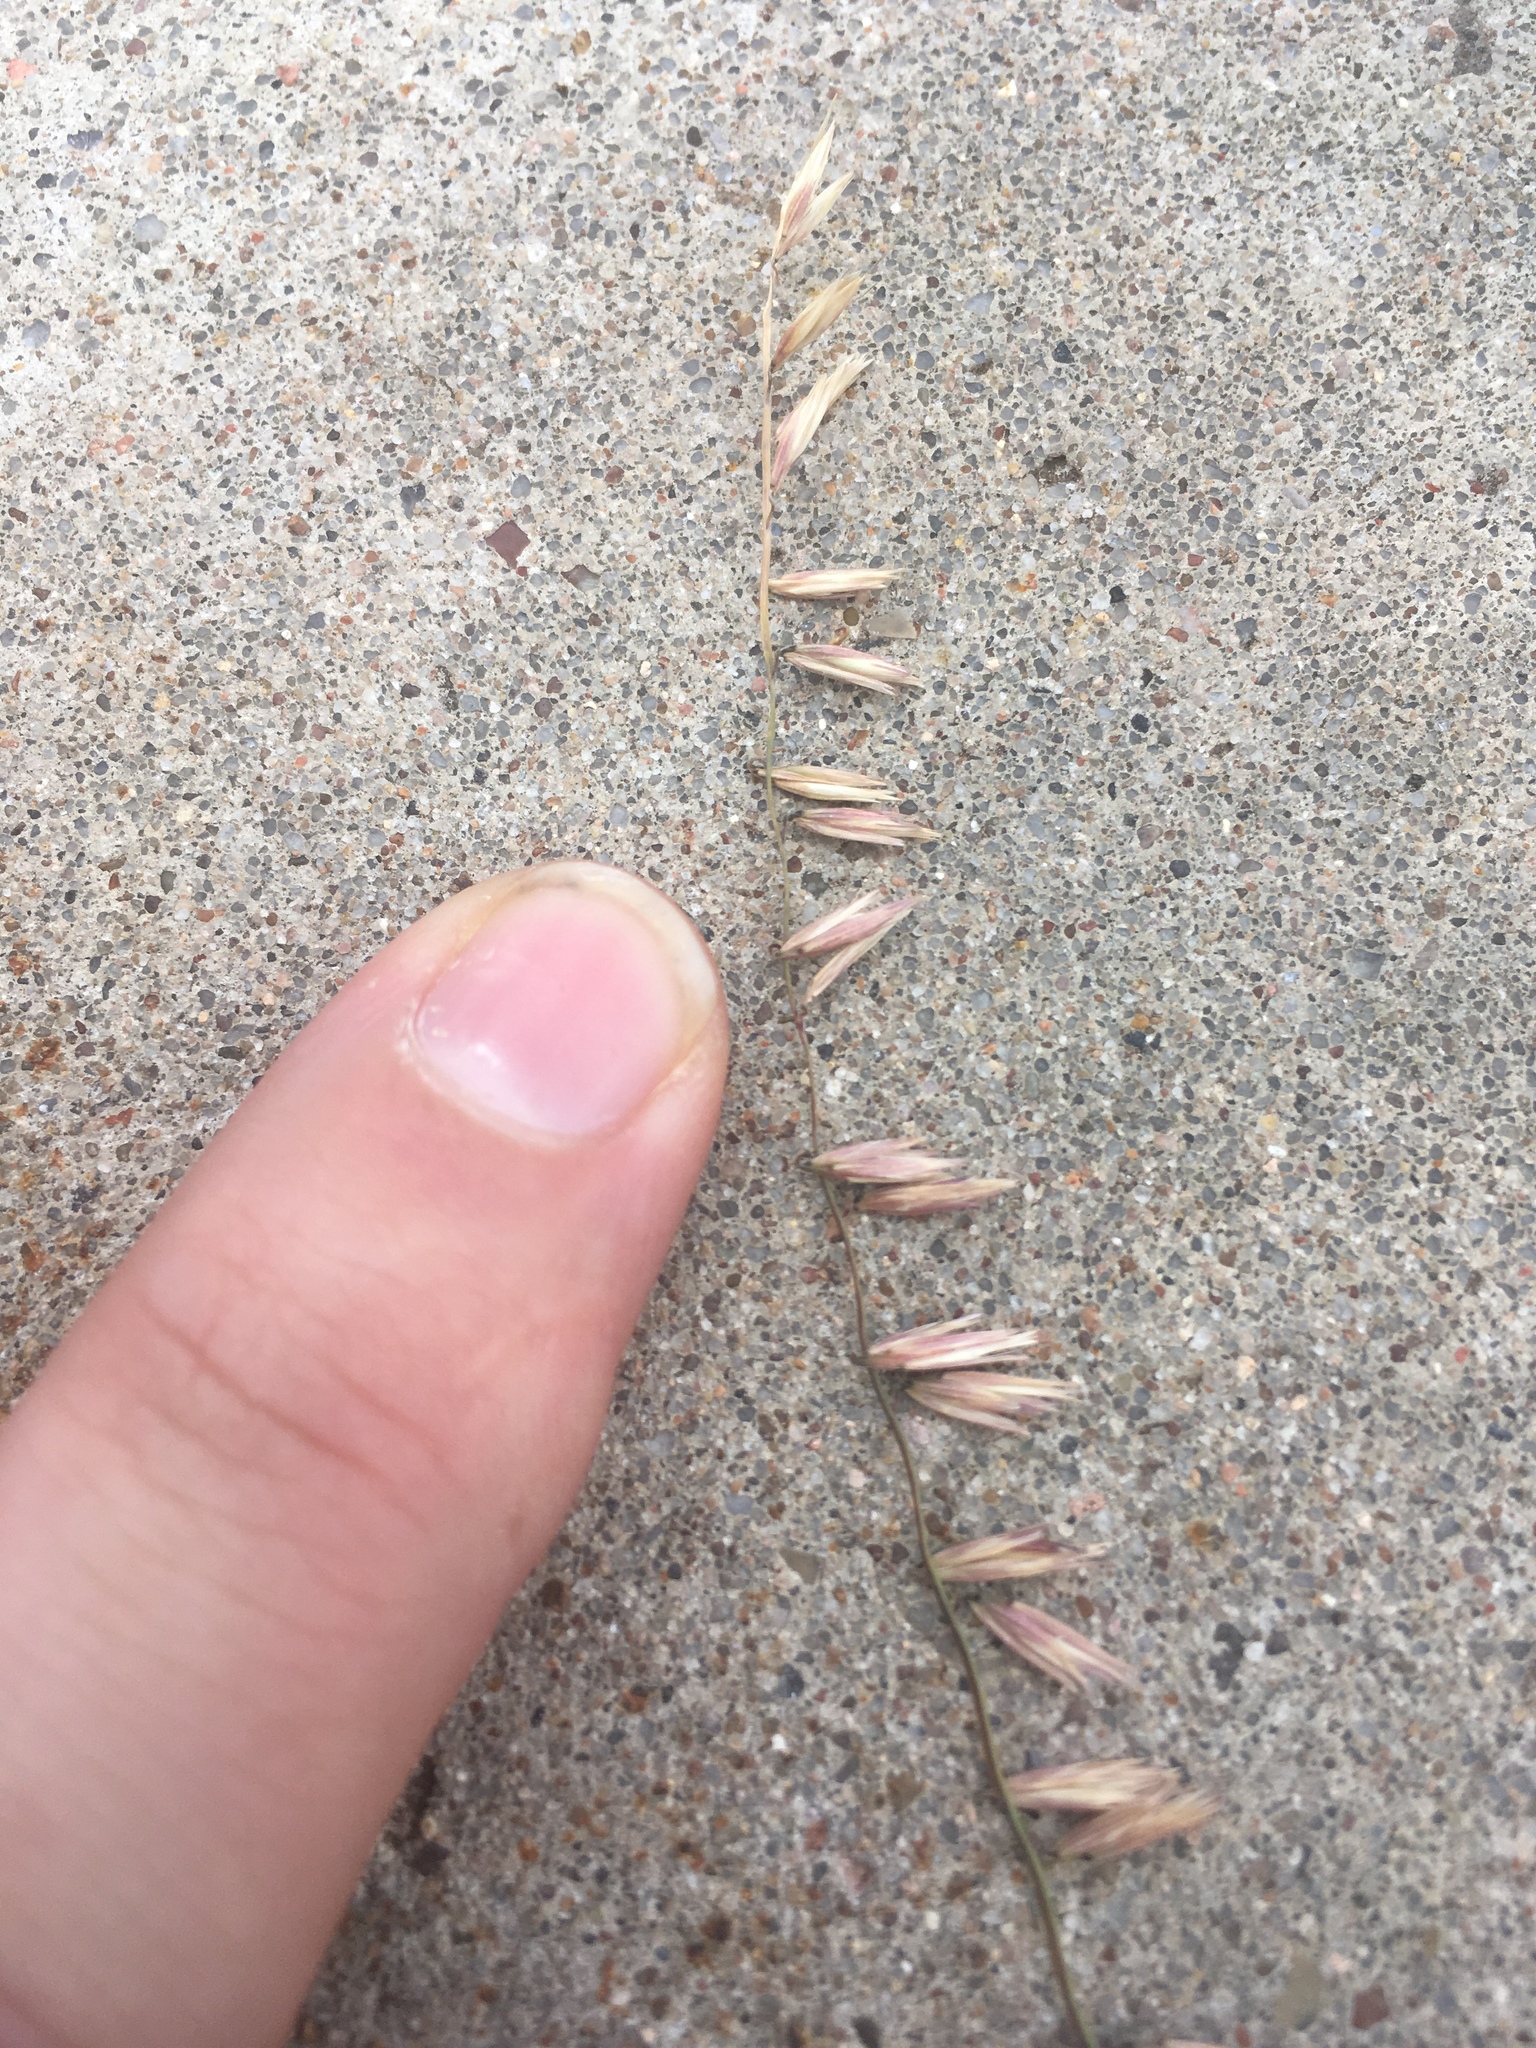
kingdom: Plantae
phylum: Tracheophyta
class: Liliopsida
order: Poales
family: Poaceae
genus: Bouteloua
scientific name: Bouteloua curtipendula
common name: Side-oats grama
